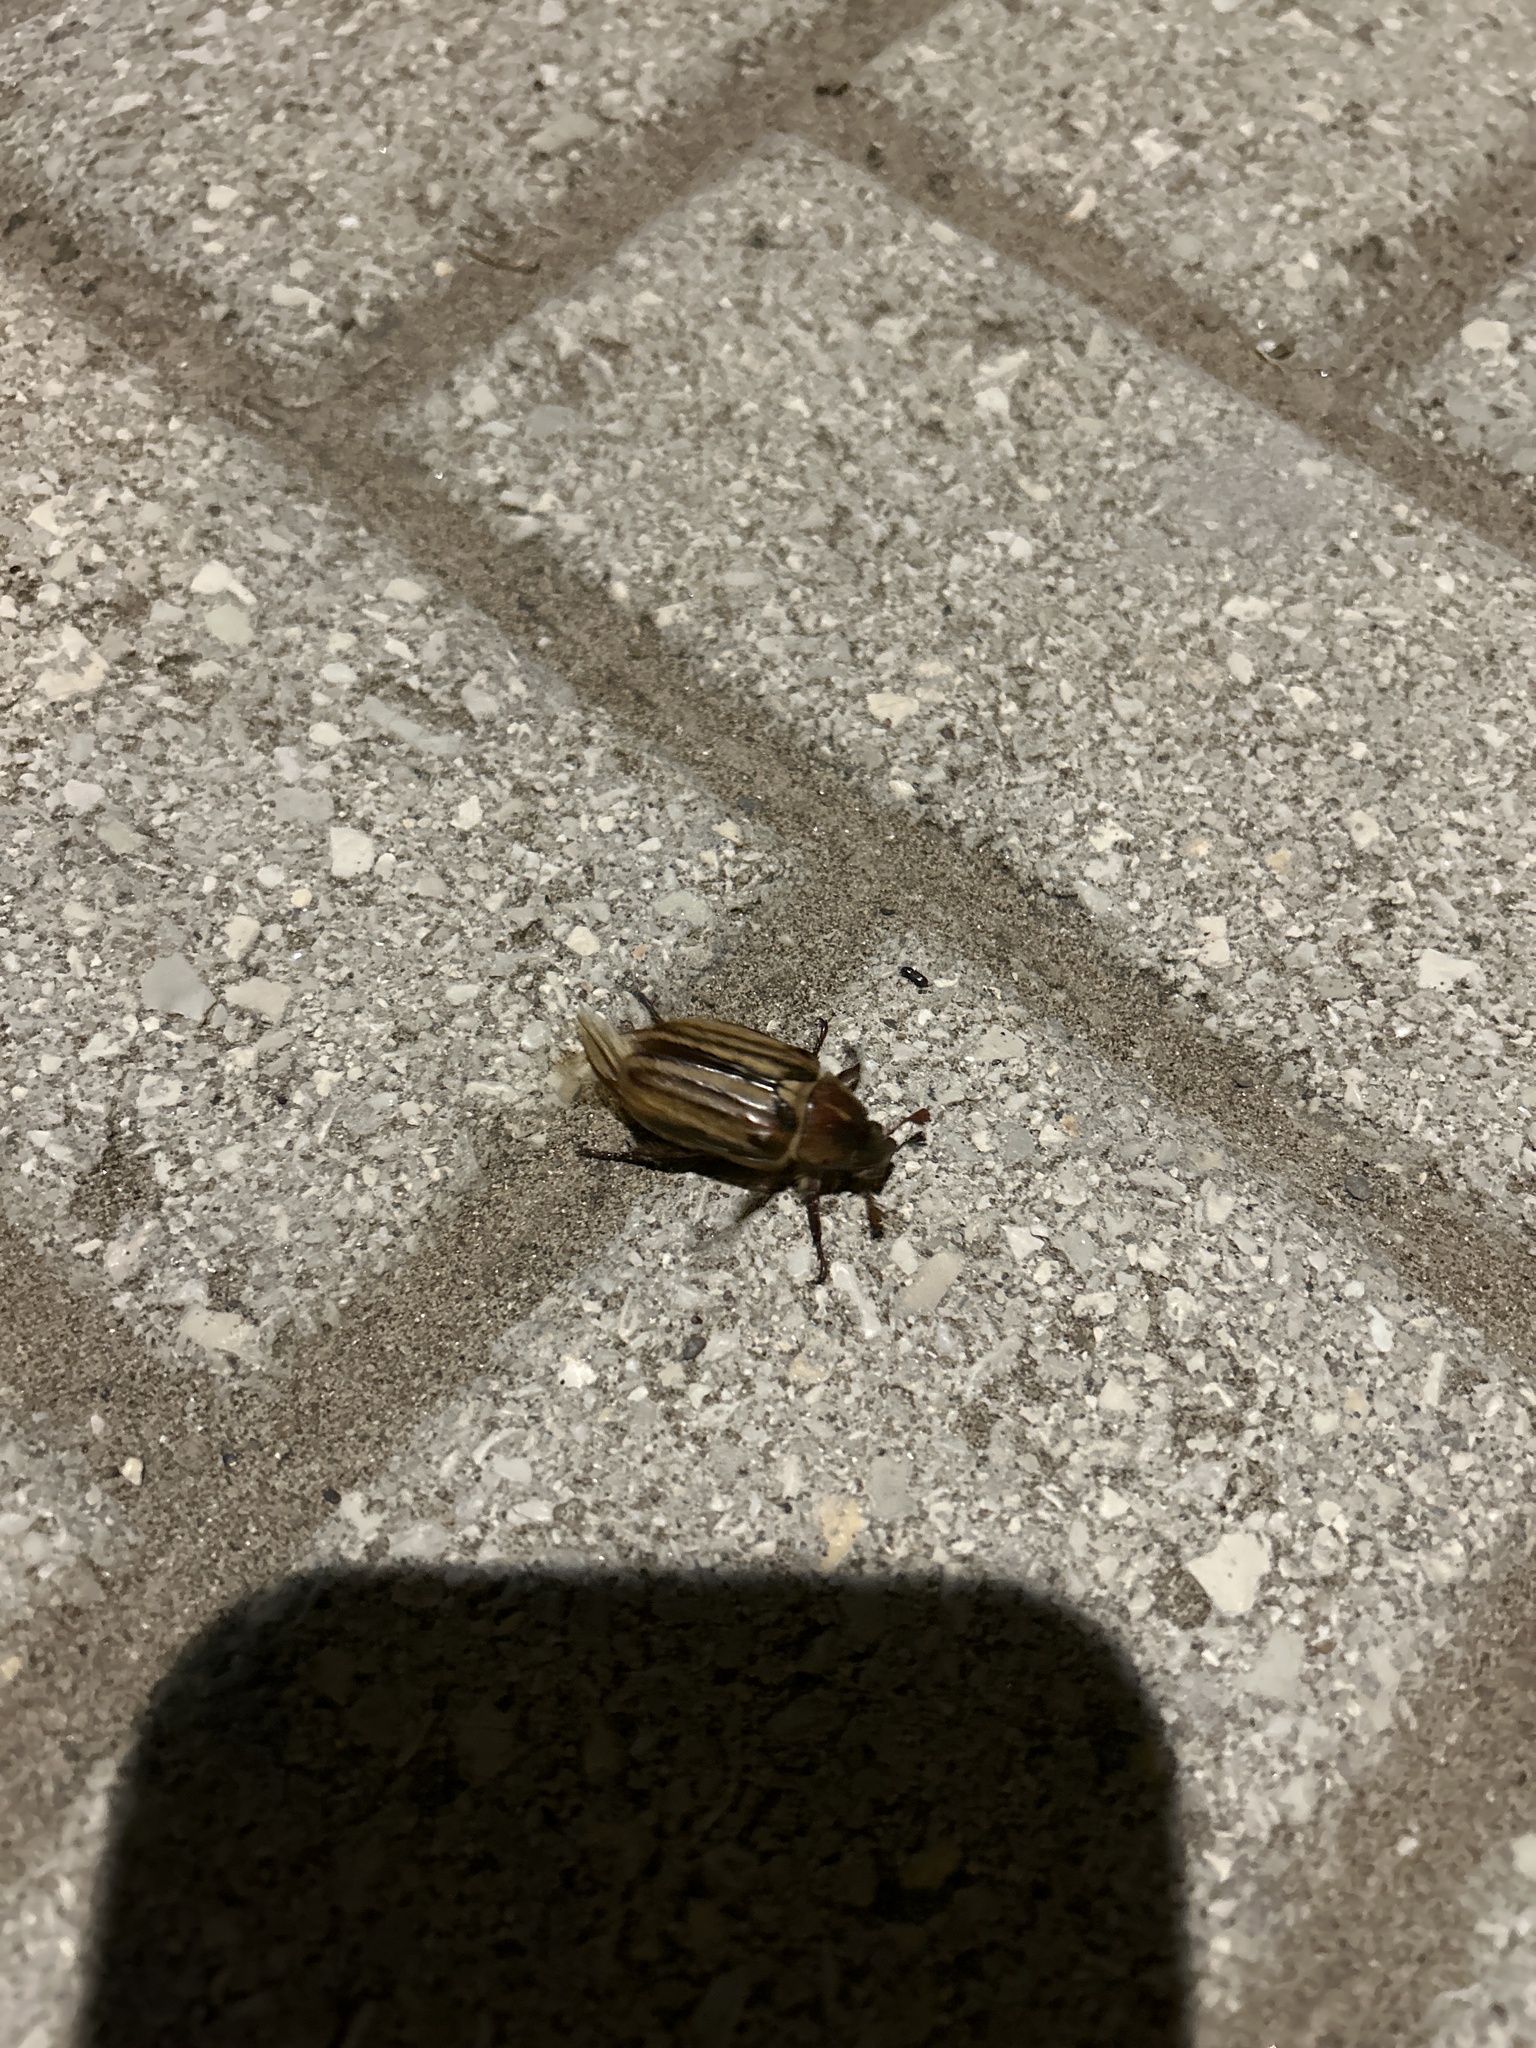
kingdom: Animalia
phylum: Arthropoda
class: Insecta
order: Coleoptera
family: Scarabaeidae
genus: Anoxia
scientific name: Anoxia matutinalis
